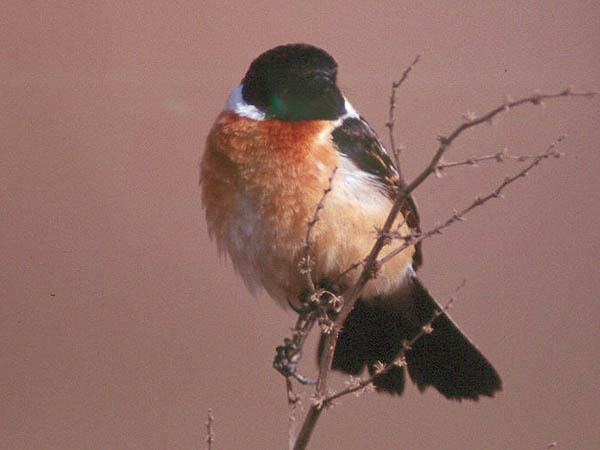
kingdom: Animalia
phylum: Chordata
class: Aves
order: Passeriformes
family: Muscicapidae
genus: Saxicola
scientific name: Saxicola stejnegeri
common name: Stejneger's stonechat
